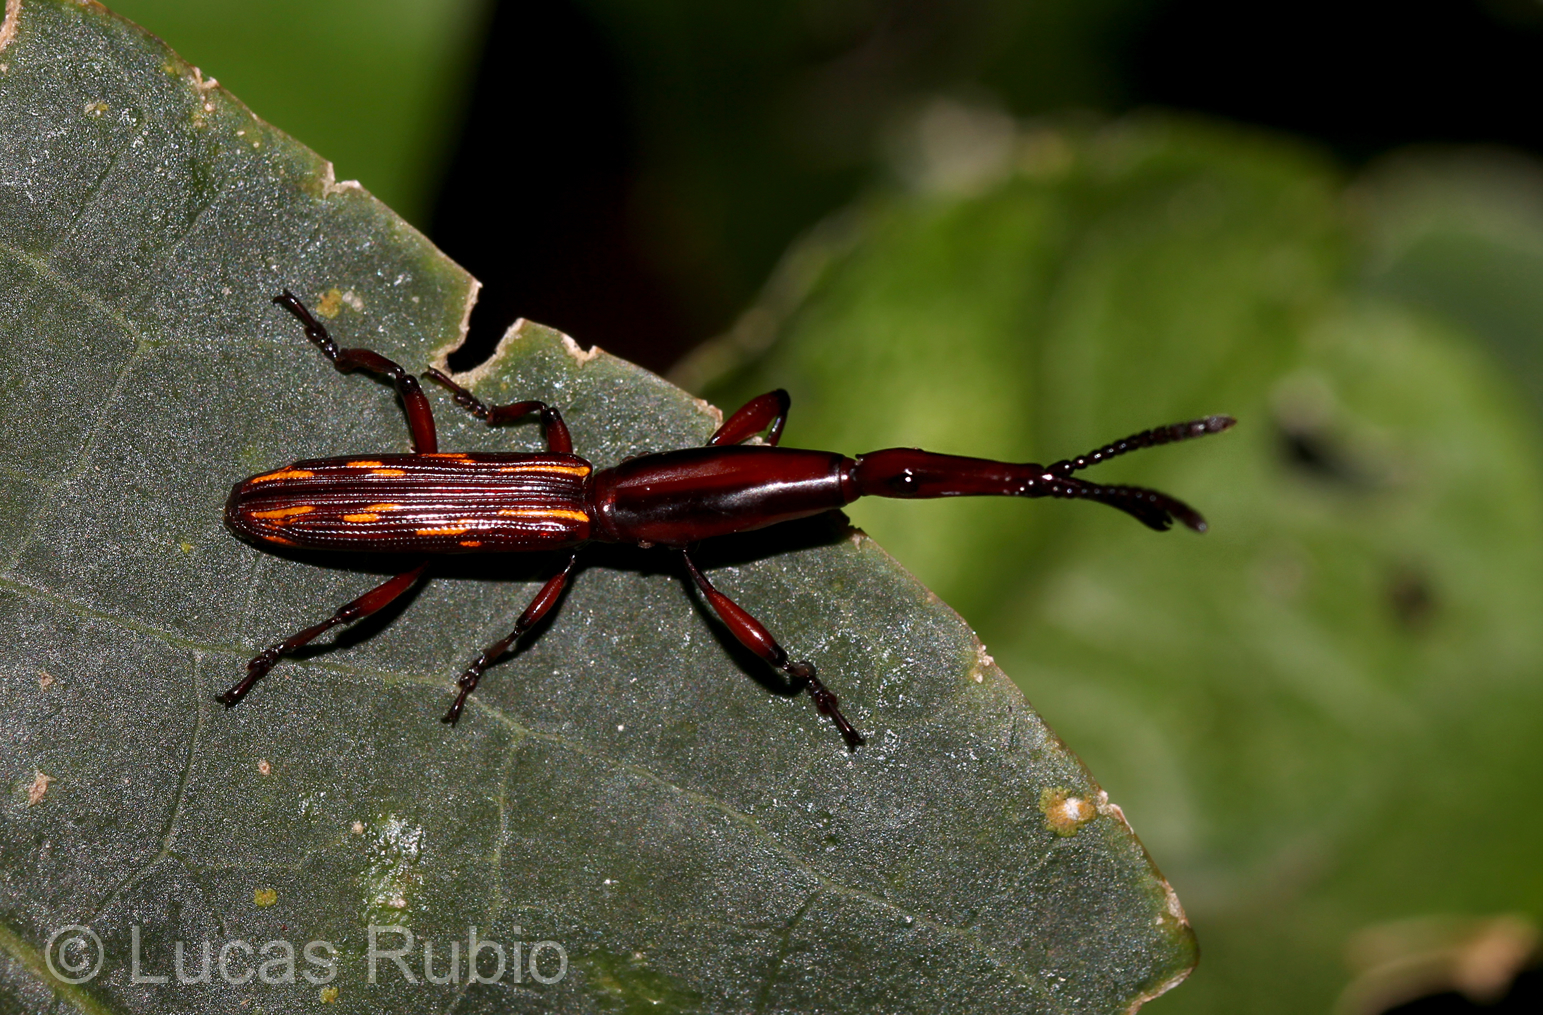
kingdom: Animalia
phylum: Arthropoda
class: Insecta
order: Coleoptera
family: Brentidae
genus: Brentus
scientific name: Brentus vulneratus
